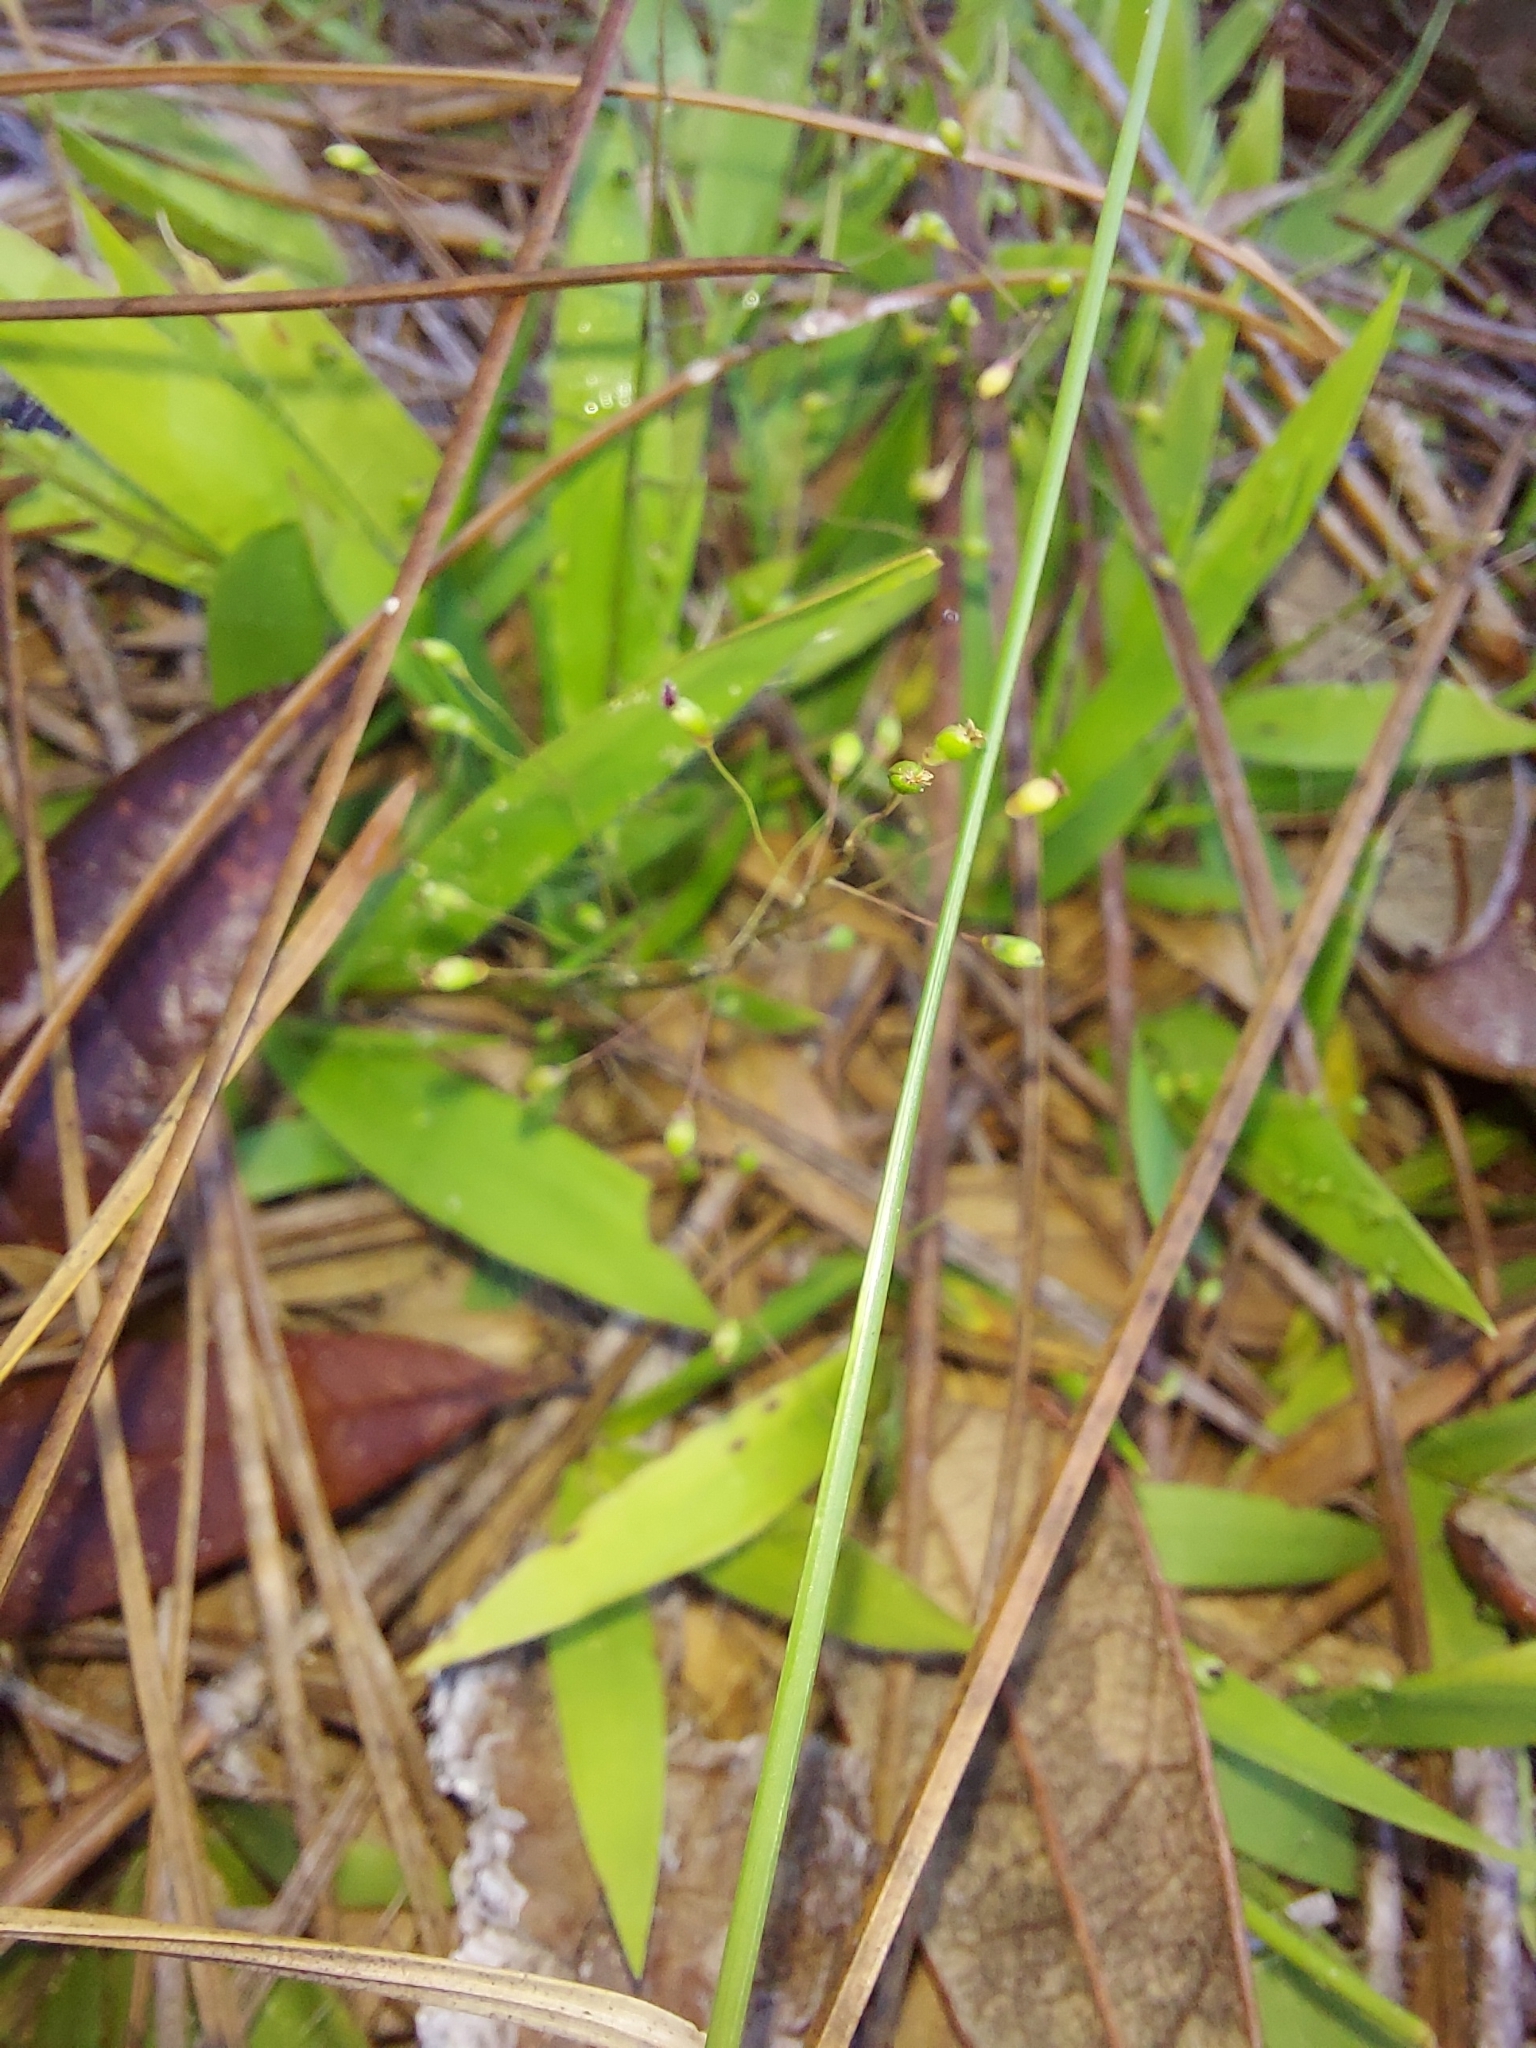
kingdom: Plantae
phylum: Tracheophyta
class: Liliopsida
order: Poales
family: Poaceae
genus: Dichanthelium
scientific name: Dichanthelium strigosum
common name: Cushion-tuft panic grass
